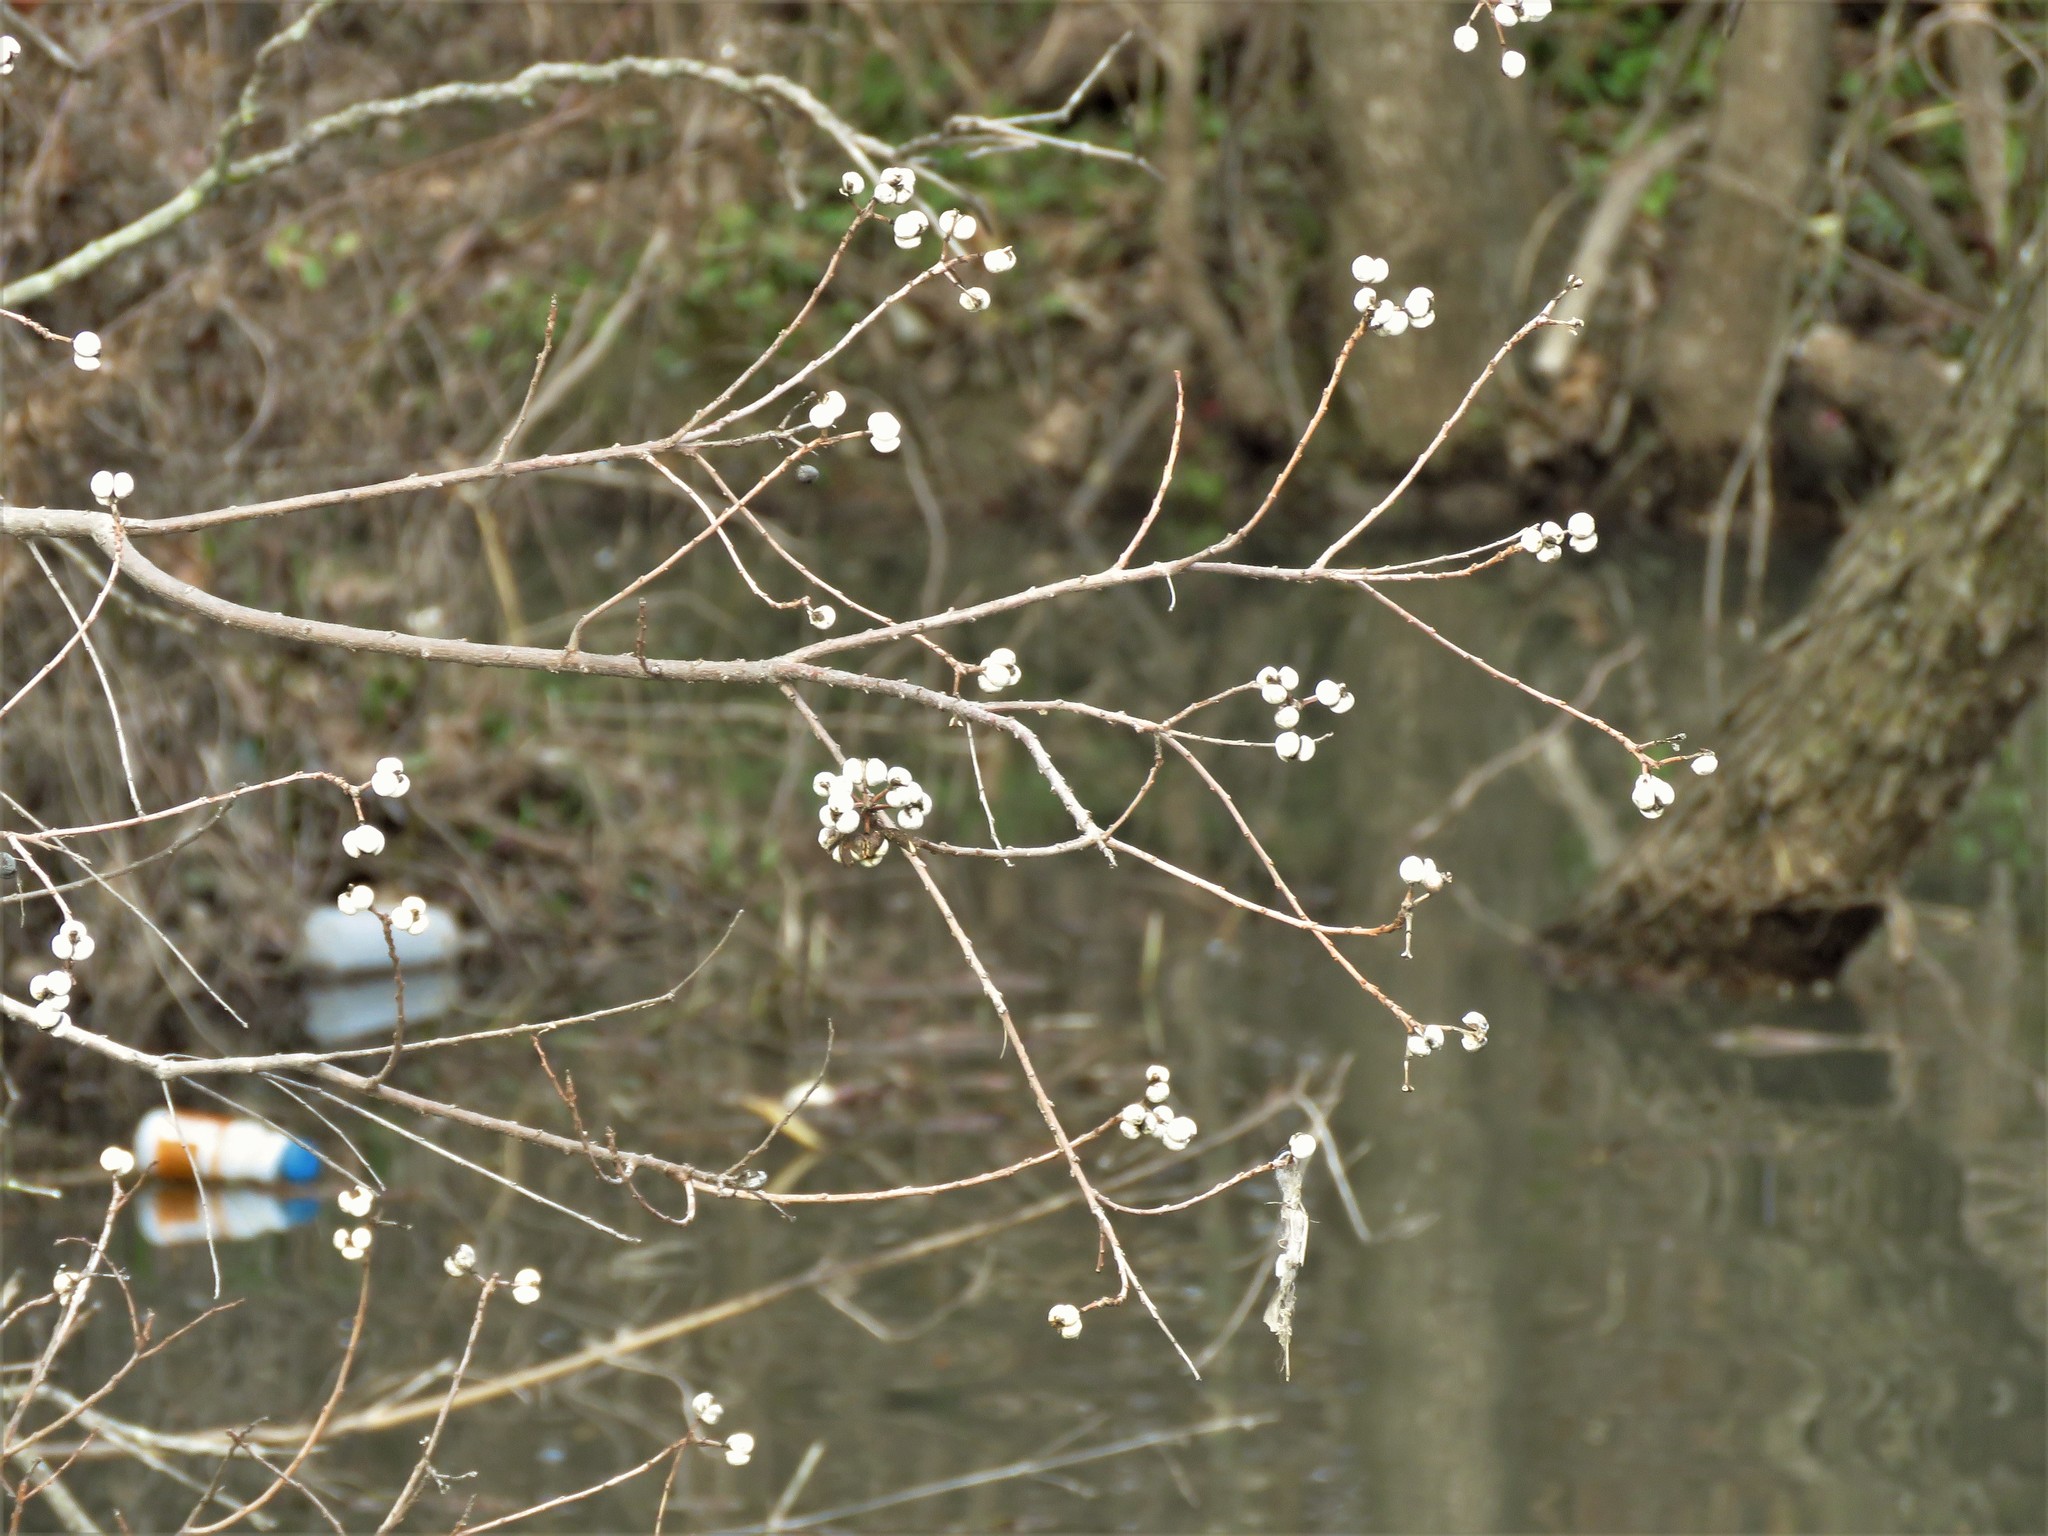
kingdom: Plantae
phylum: Tracheophyta
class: Magnoliopsida
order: Malpighiales
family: Euphorbiaceae
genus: Triadica
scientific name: Triadica sebifera
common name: Chinese tallow
